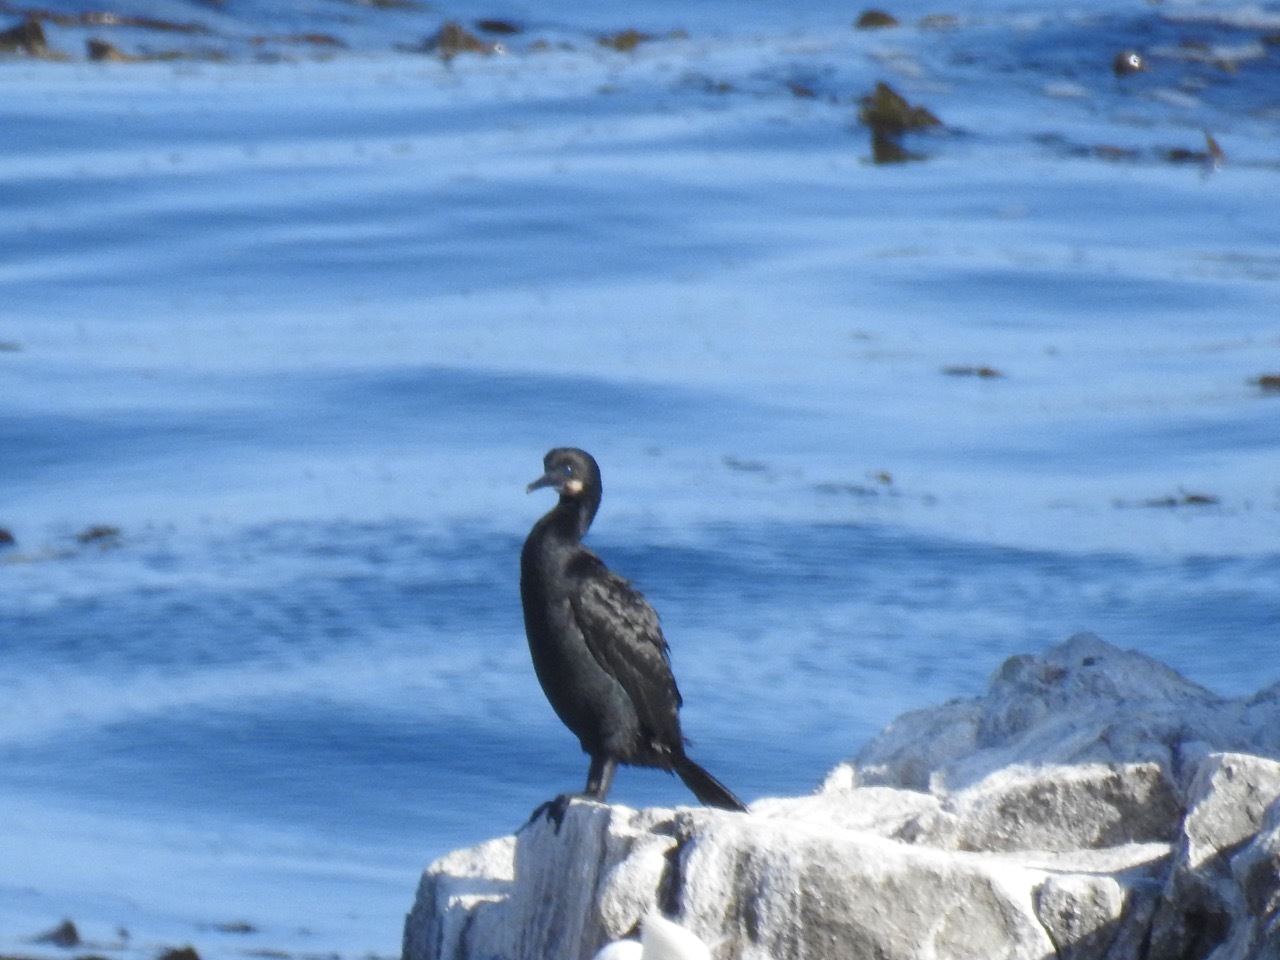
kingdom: Animalia
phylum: Chordata
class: Aves
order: Suliformes
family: Phalacrocoracidae
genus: Urile
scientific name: Urile penicillatus
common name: Brandt's cormorant
